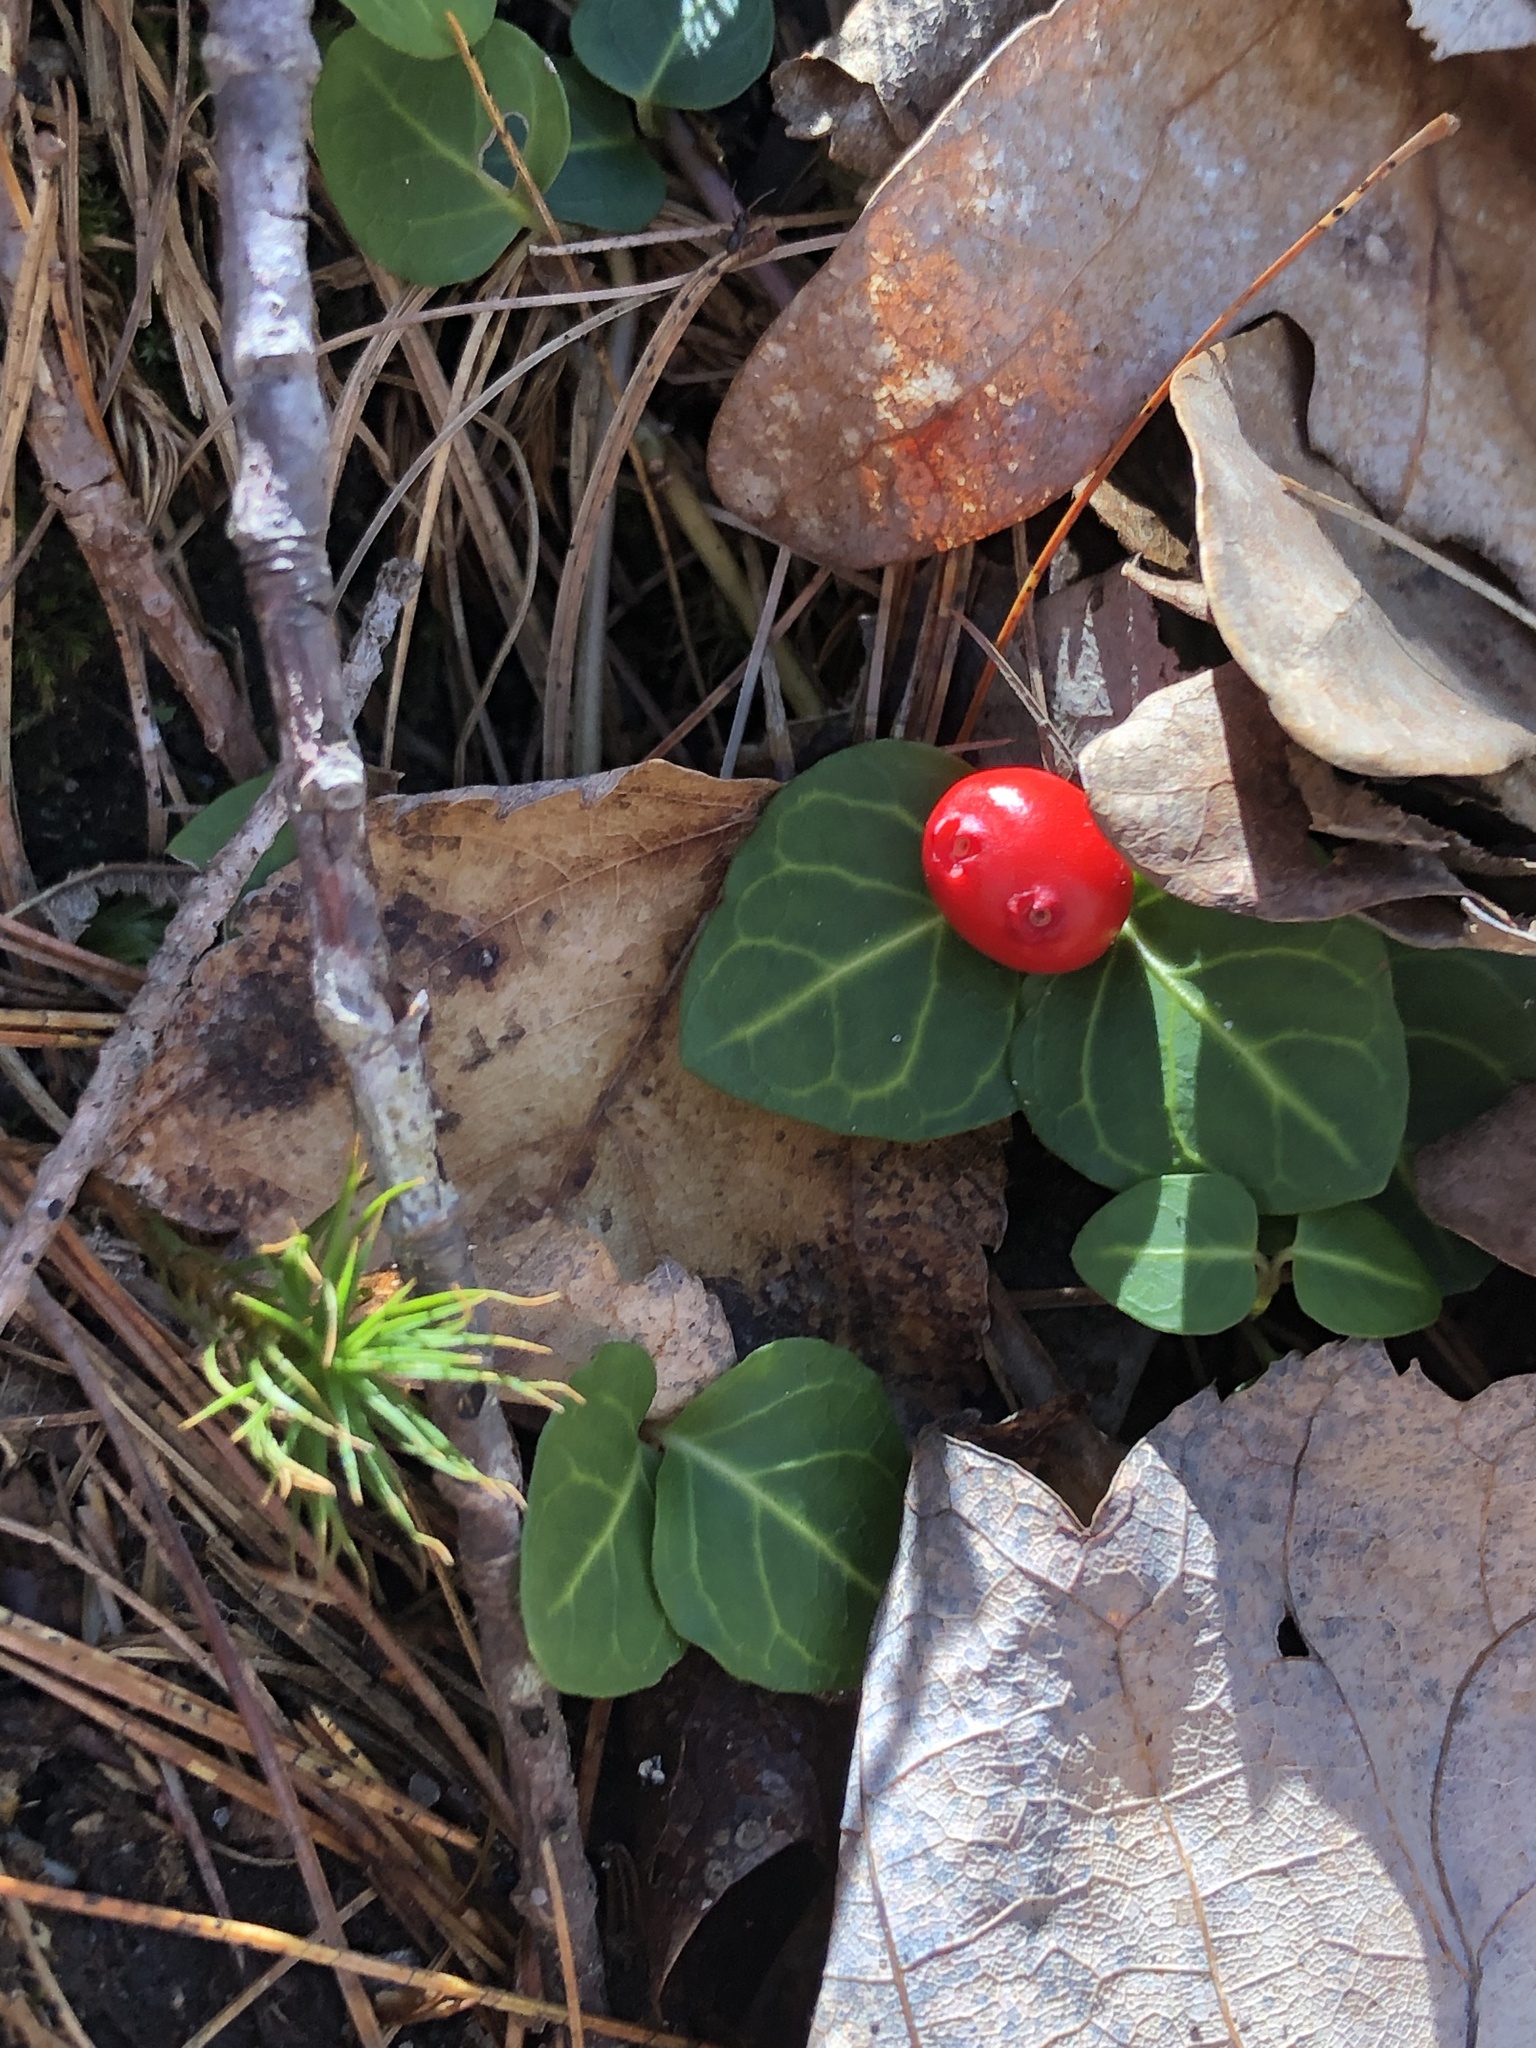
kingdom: Plantae
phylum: Tracheophyta
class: Magnoliopsida
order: Gentianales
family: Rubiaceae
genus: Mitchella
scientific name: Mitchella repens
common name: Partridge-berry
